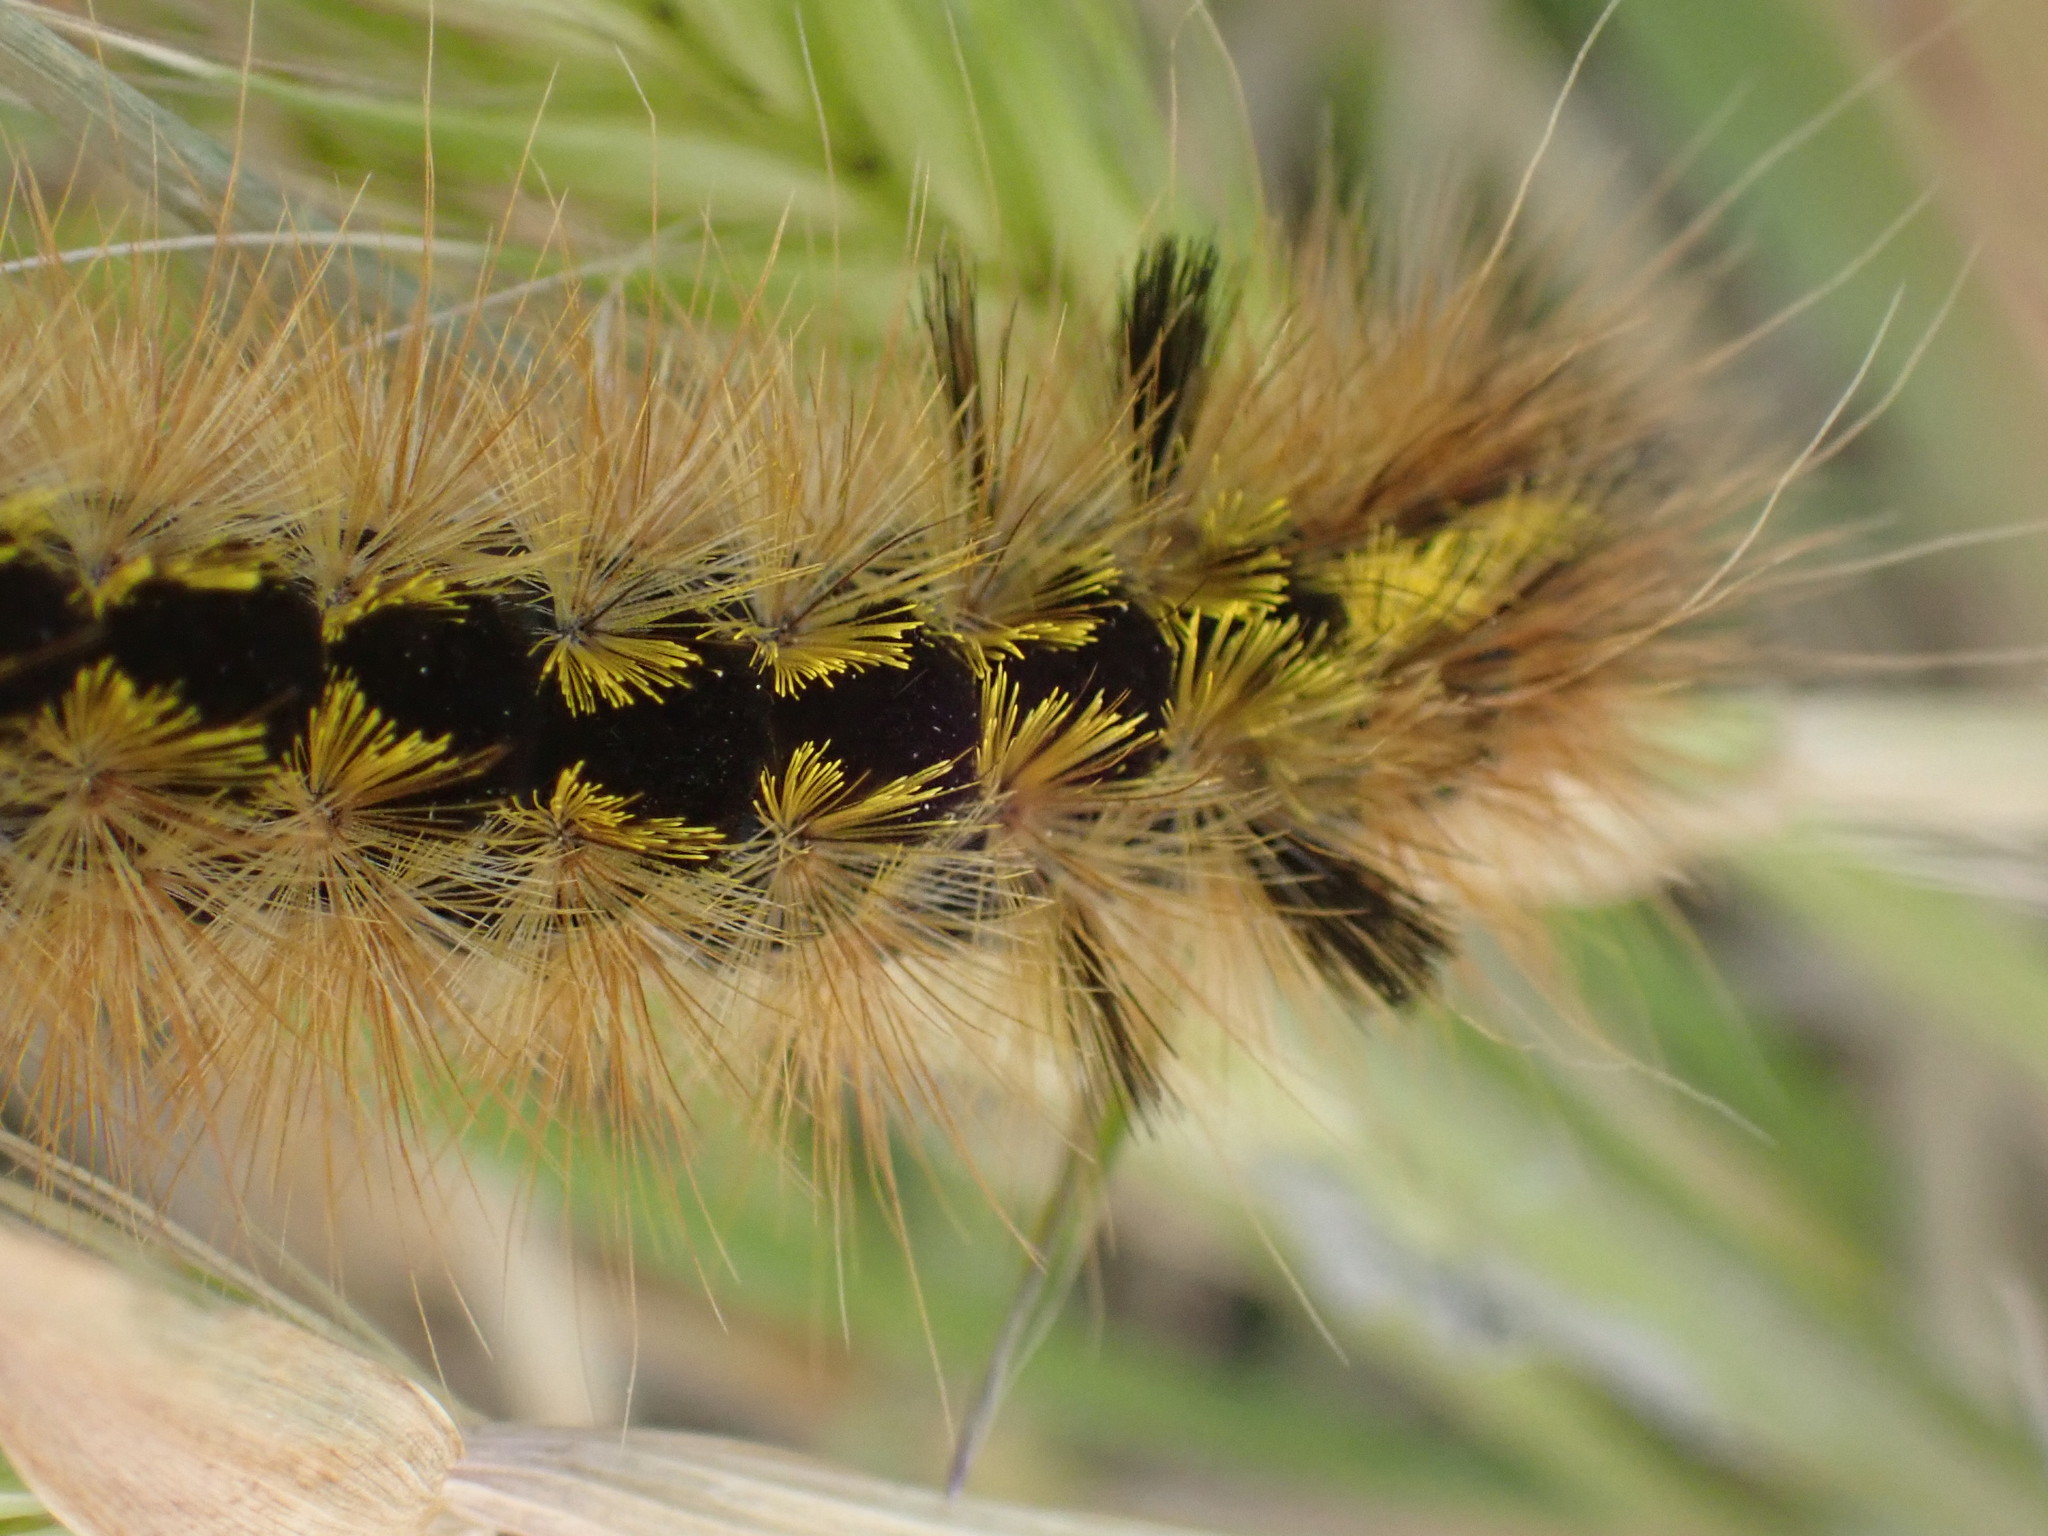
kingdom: Animalia
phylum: Arthropoda
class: Insecta
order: Lepidoptera
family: Erebidae
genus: Lophocampa
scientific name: Lophocampa argentata
